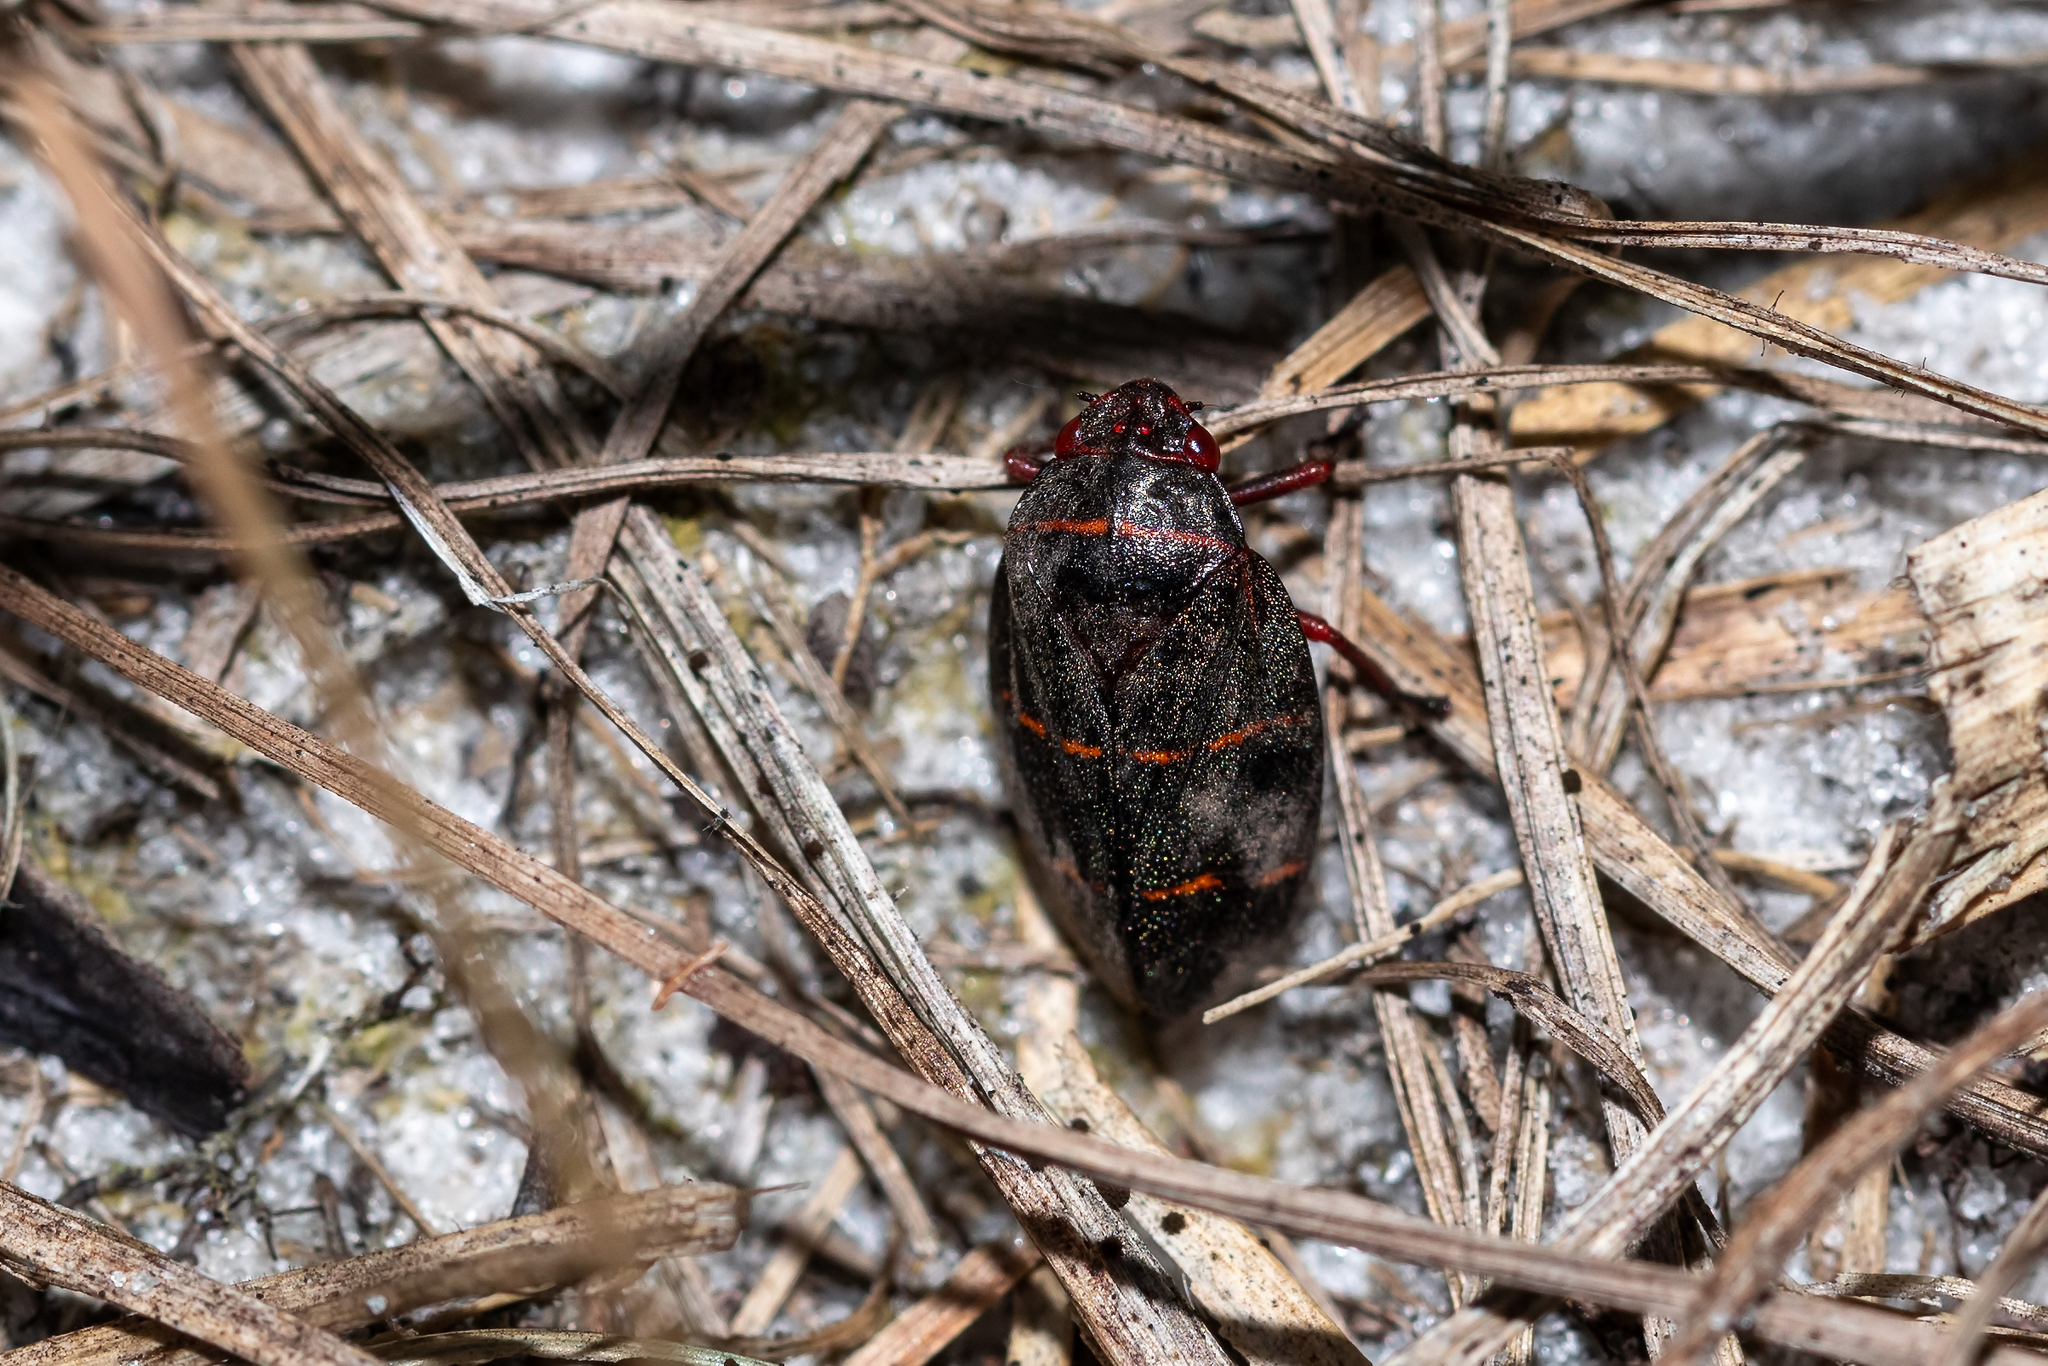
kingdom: Animalia
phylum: Arthropoda
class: Insecta
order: Hemiptera
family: Cercopidae
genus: Prosapia
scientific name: Prosapia bicincta
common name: Twolined spittlebug
